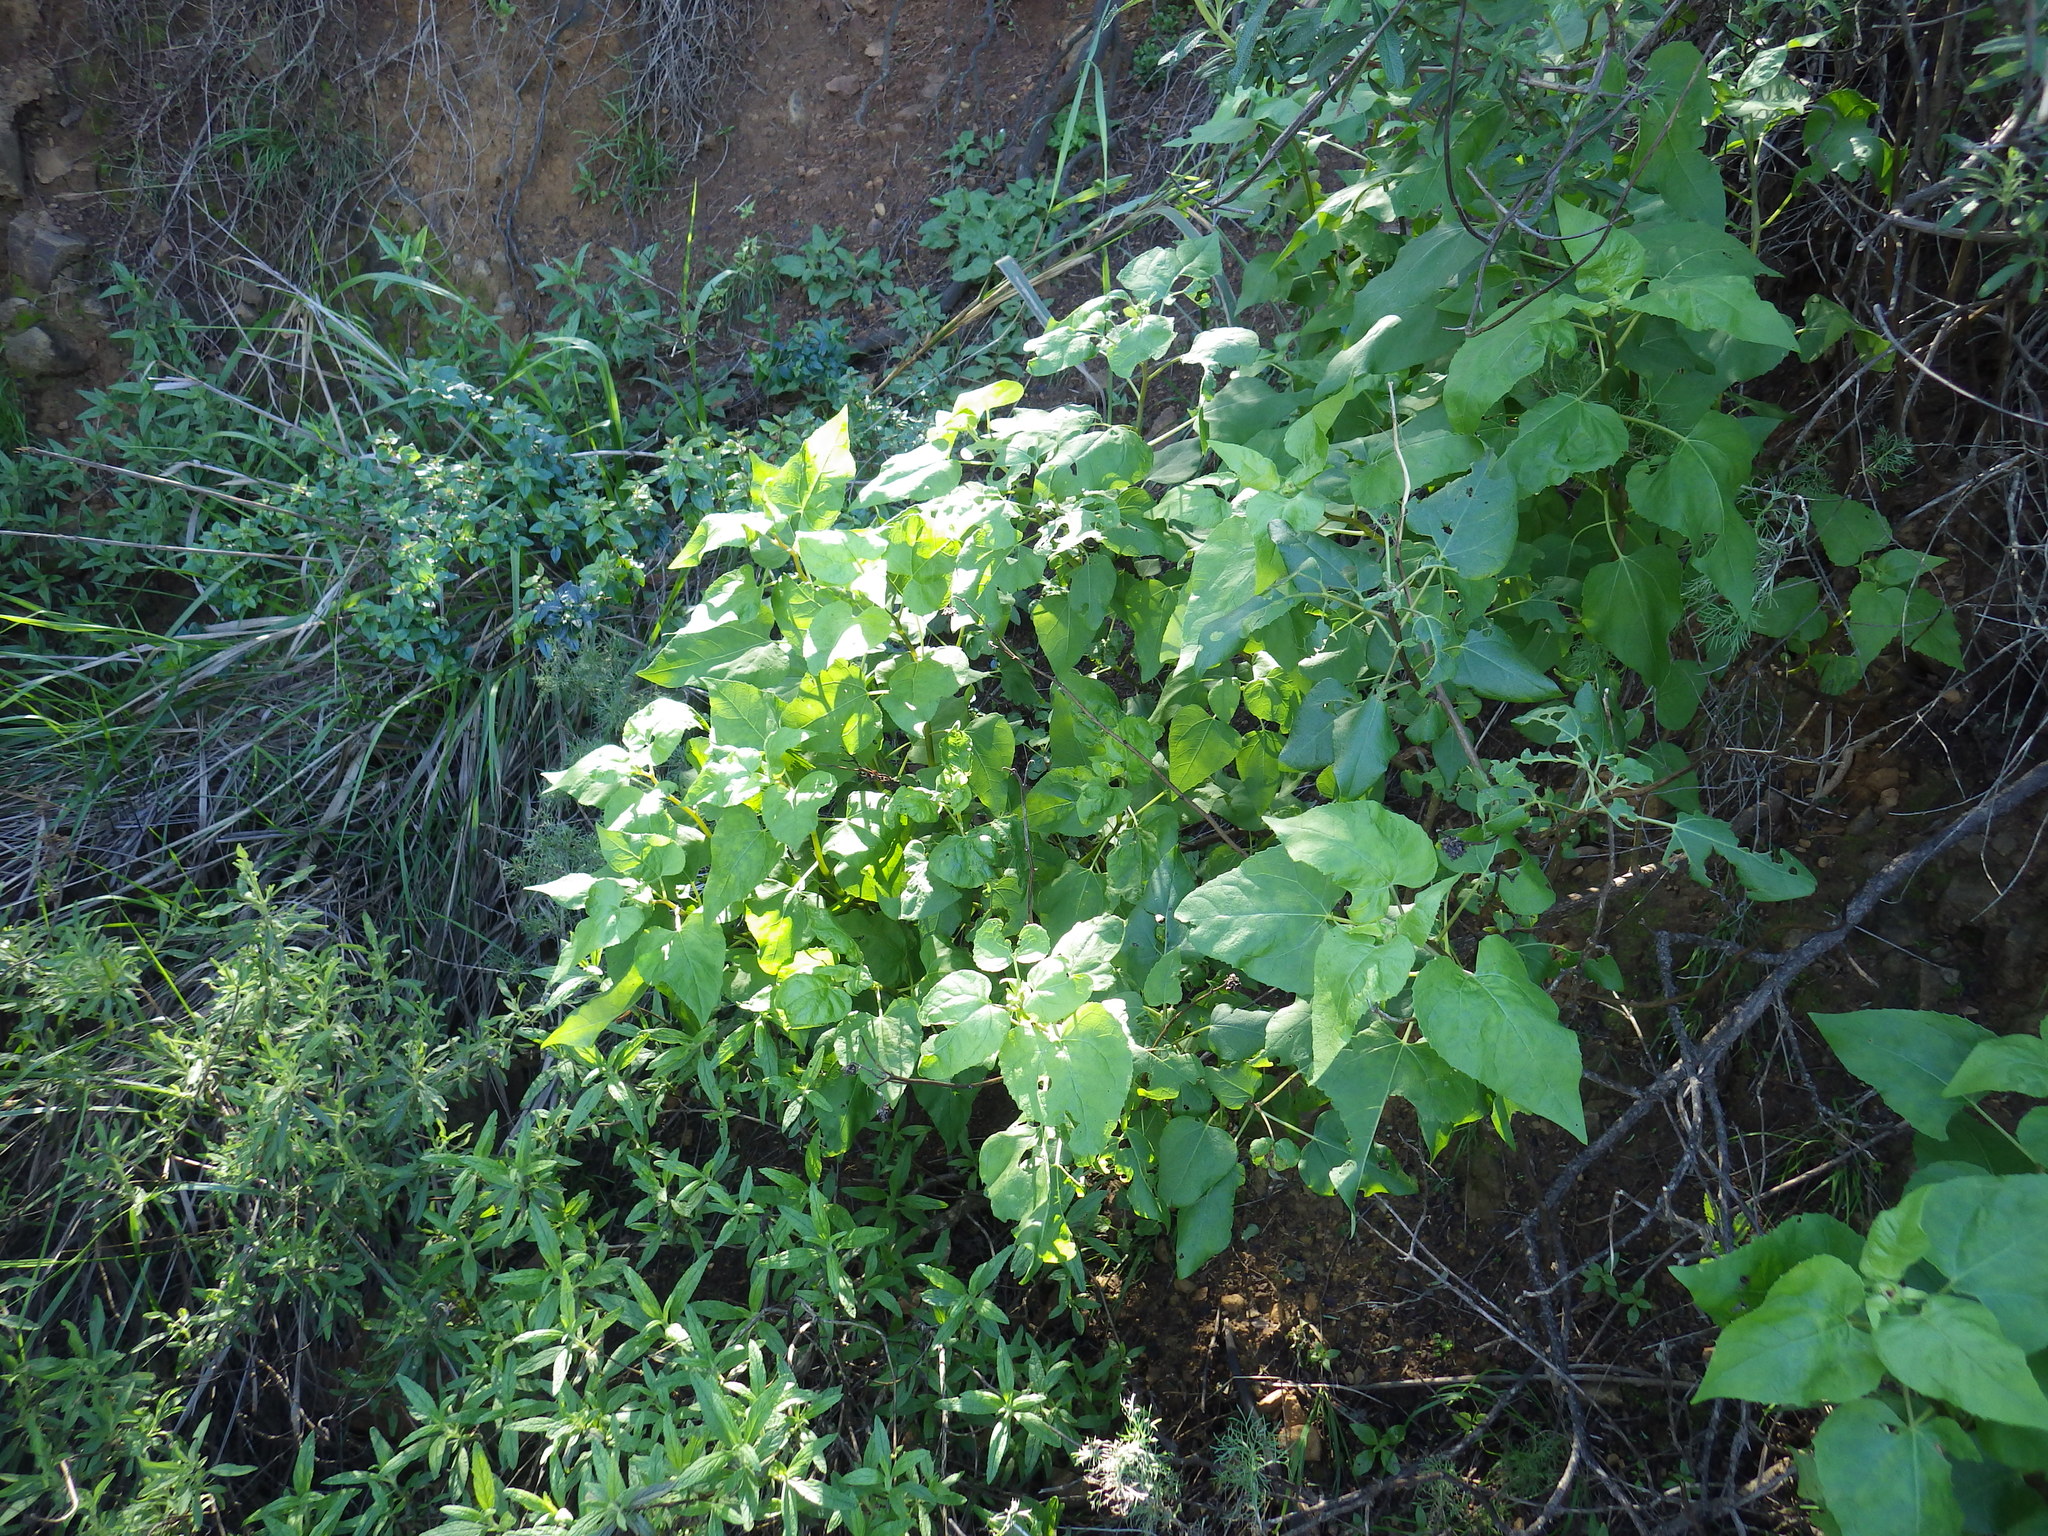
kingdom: Plantae
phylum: Tracheophyta
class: Magnoliopsida
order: Asterales
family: Asteraceae
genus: Venegasia
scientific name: Venegasia carpesioides
